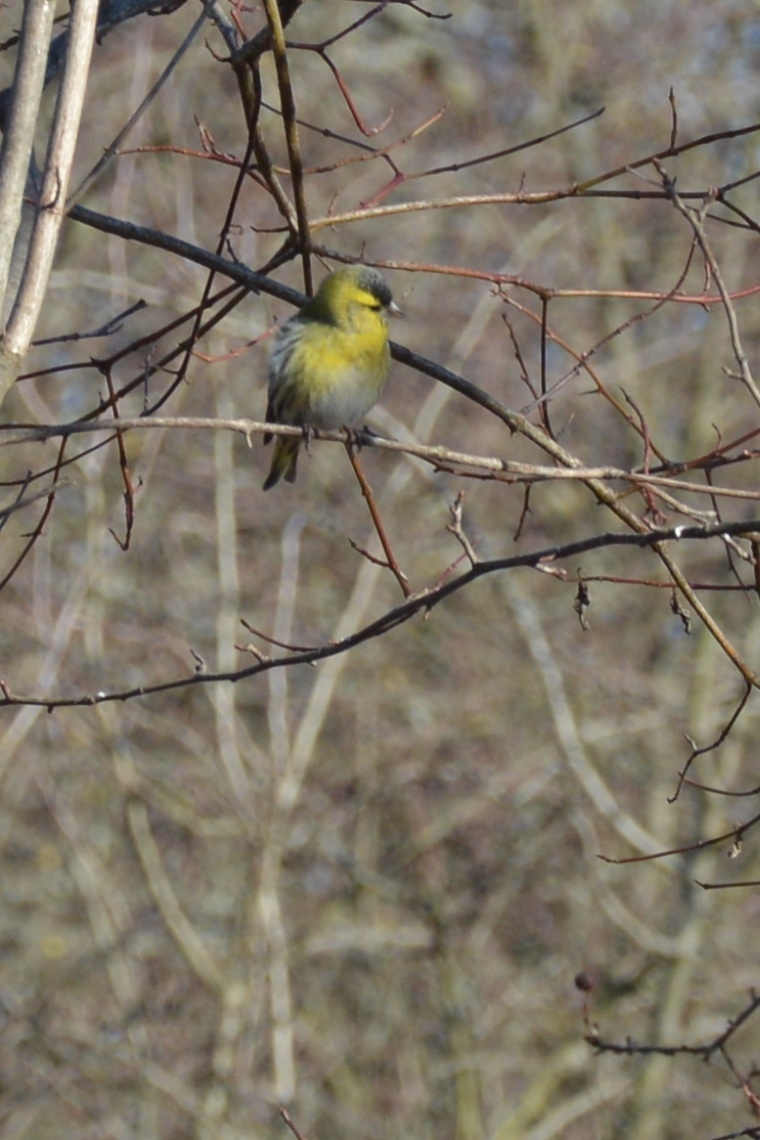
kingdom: Animalia
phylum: Chordata
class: Aves
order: Passeriformes
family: Fringillidae
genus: Spinus
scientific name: Spinus spinus
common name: Eurasian siskin
